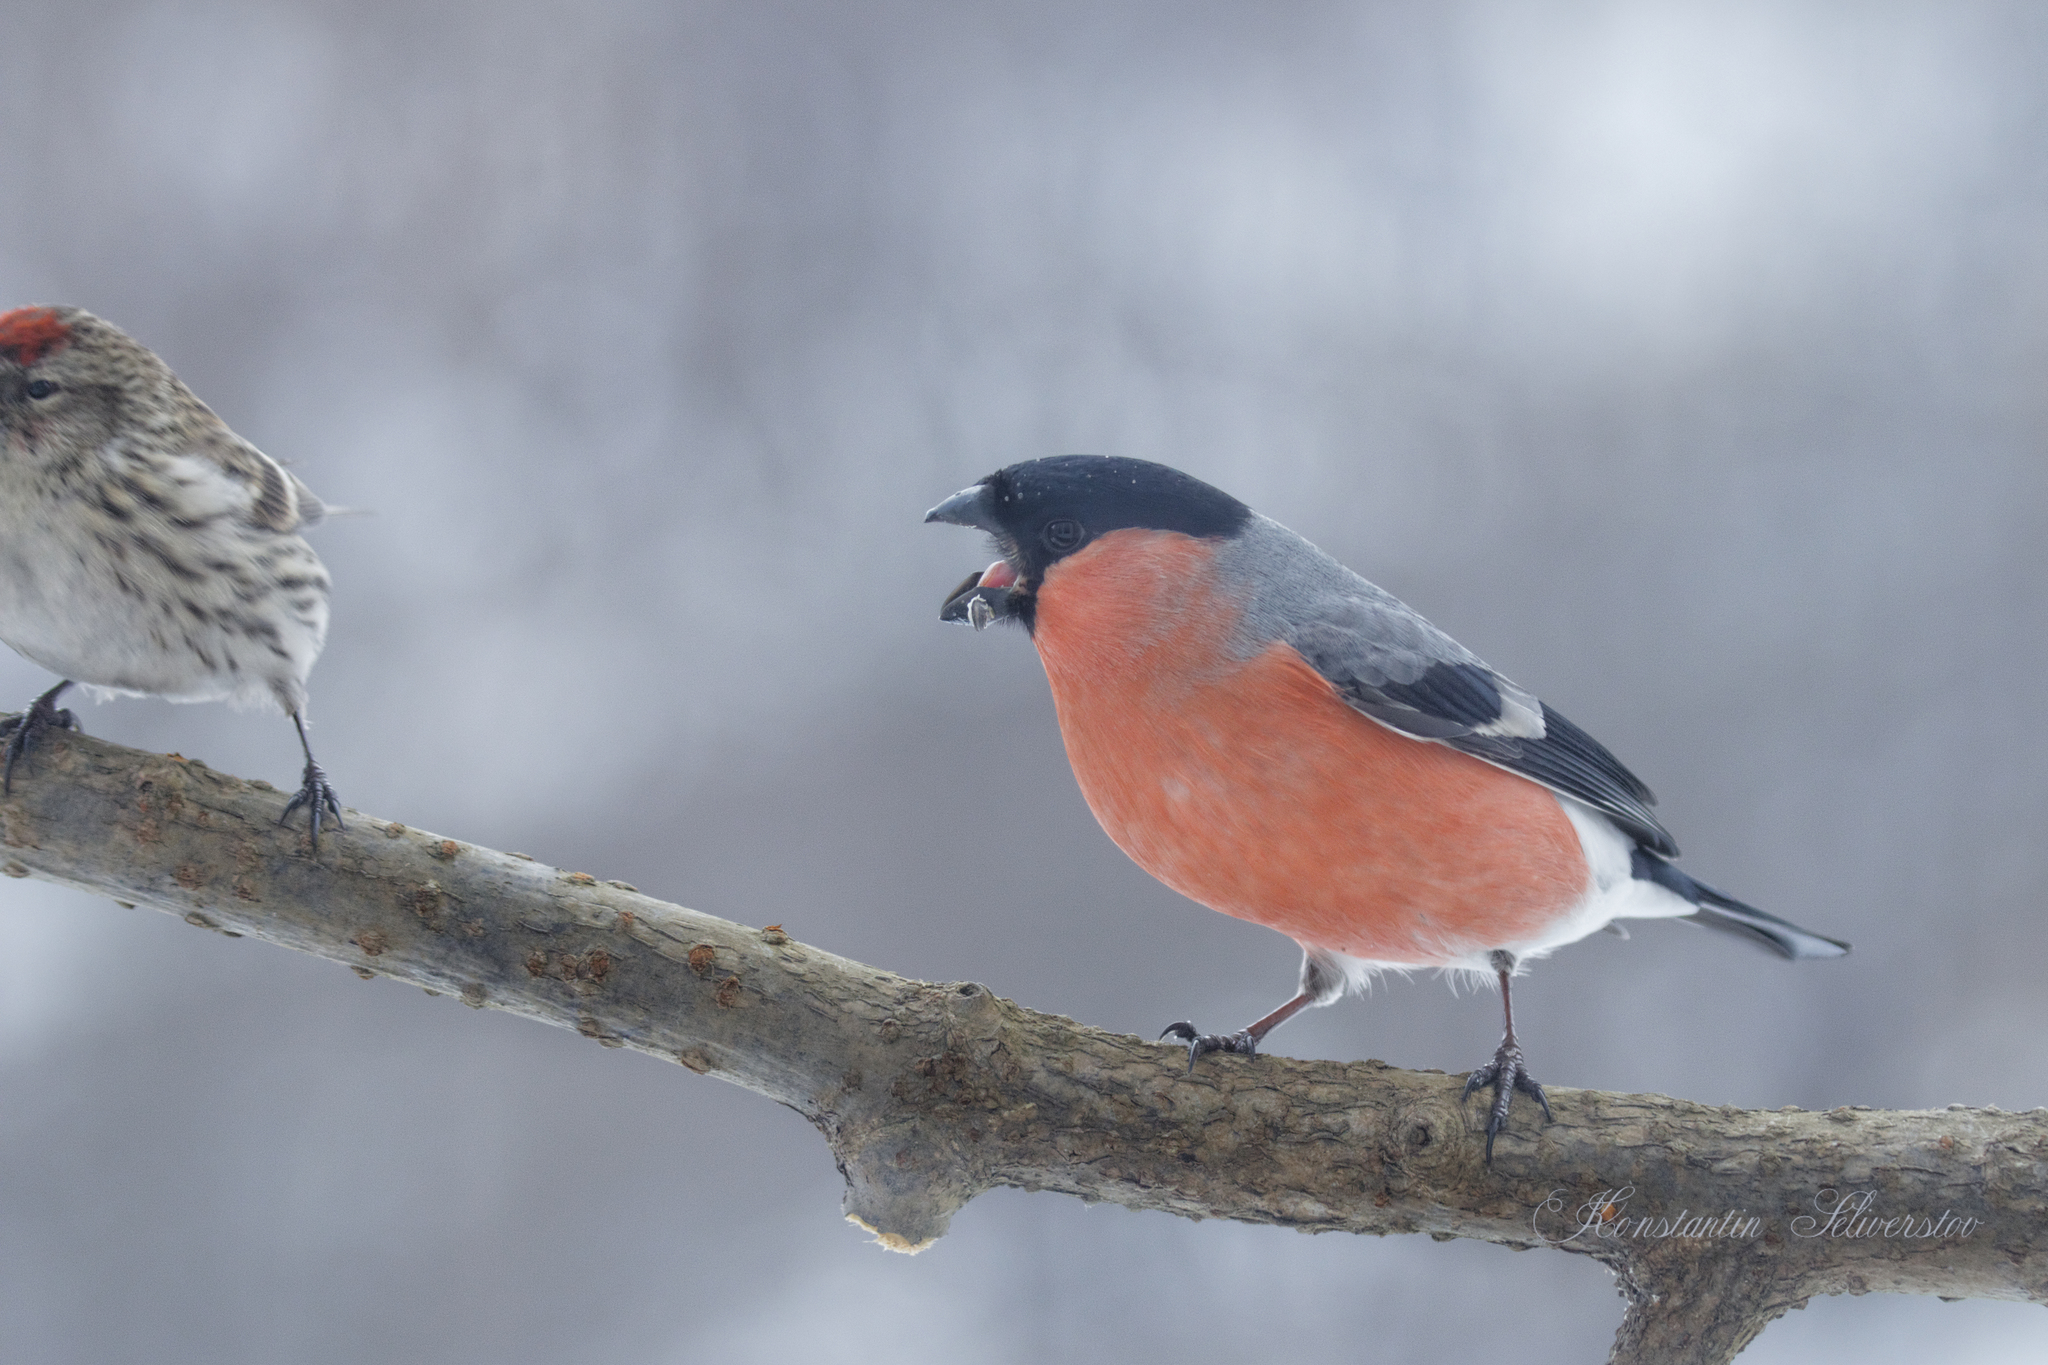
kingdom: Animalia
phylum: Chordata
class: Aves
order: Passeriformes
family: Fringillidae
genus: Pyrrhula
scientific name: Pyrrhula pyrrhula
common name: Eurasian bullfinch
